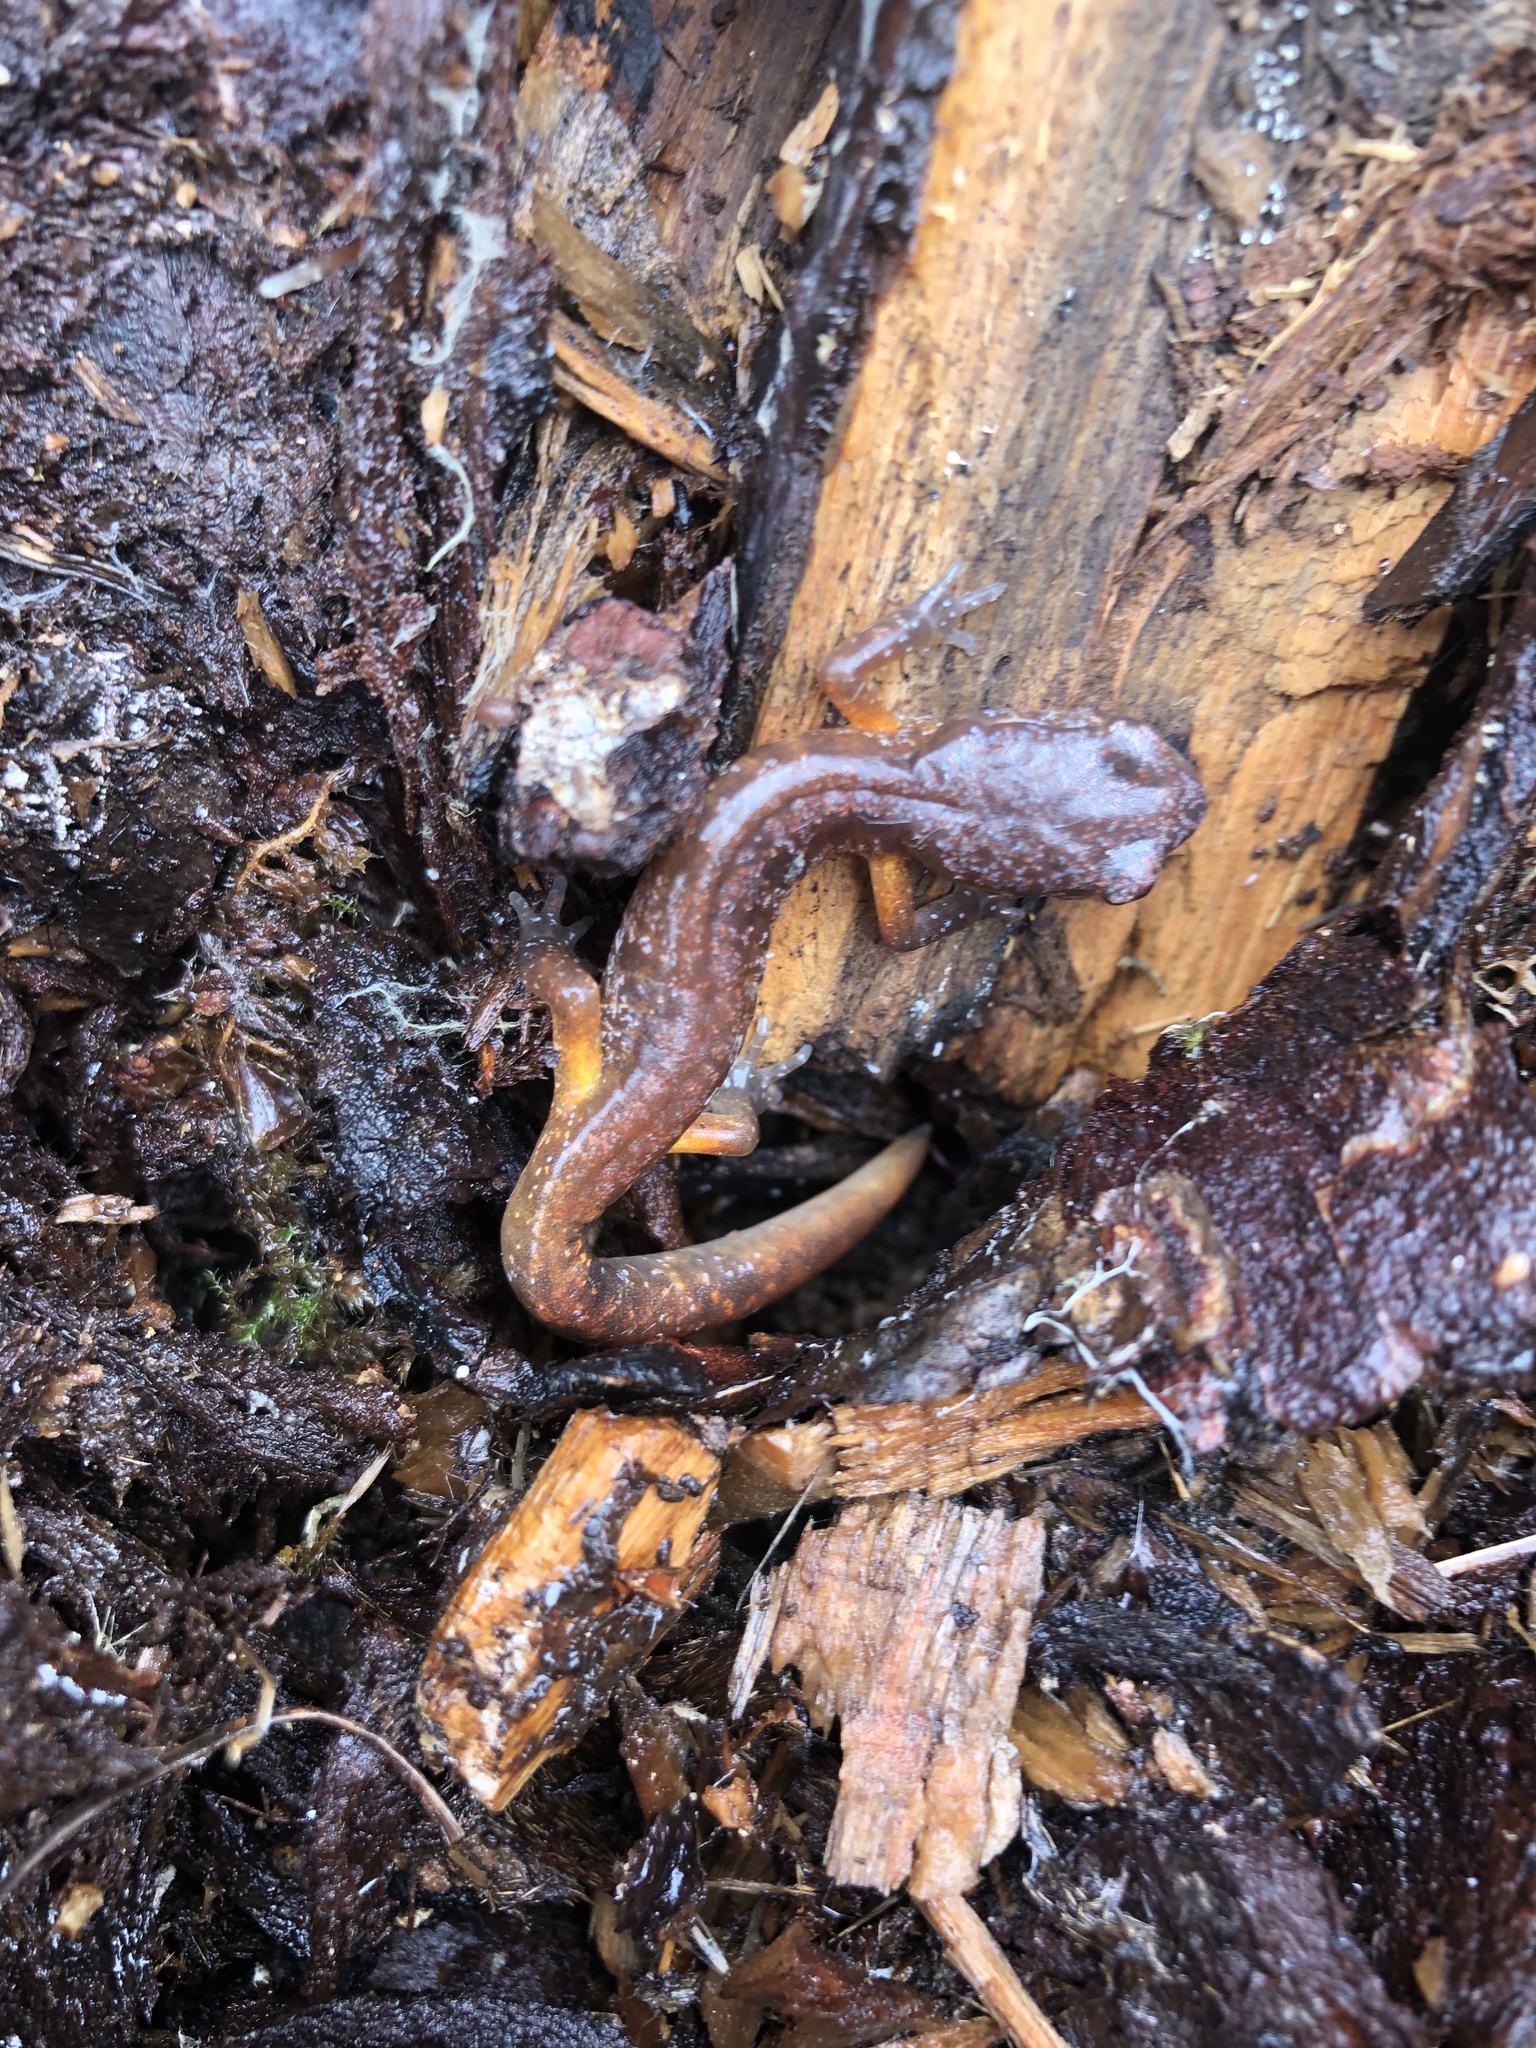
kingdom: Animalia
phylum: Chordata
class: Amphibia
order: Caudata
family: Plethodontidae
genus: Ensatina
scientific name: Ensatina eschscholtzii
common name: Ensatina
